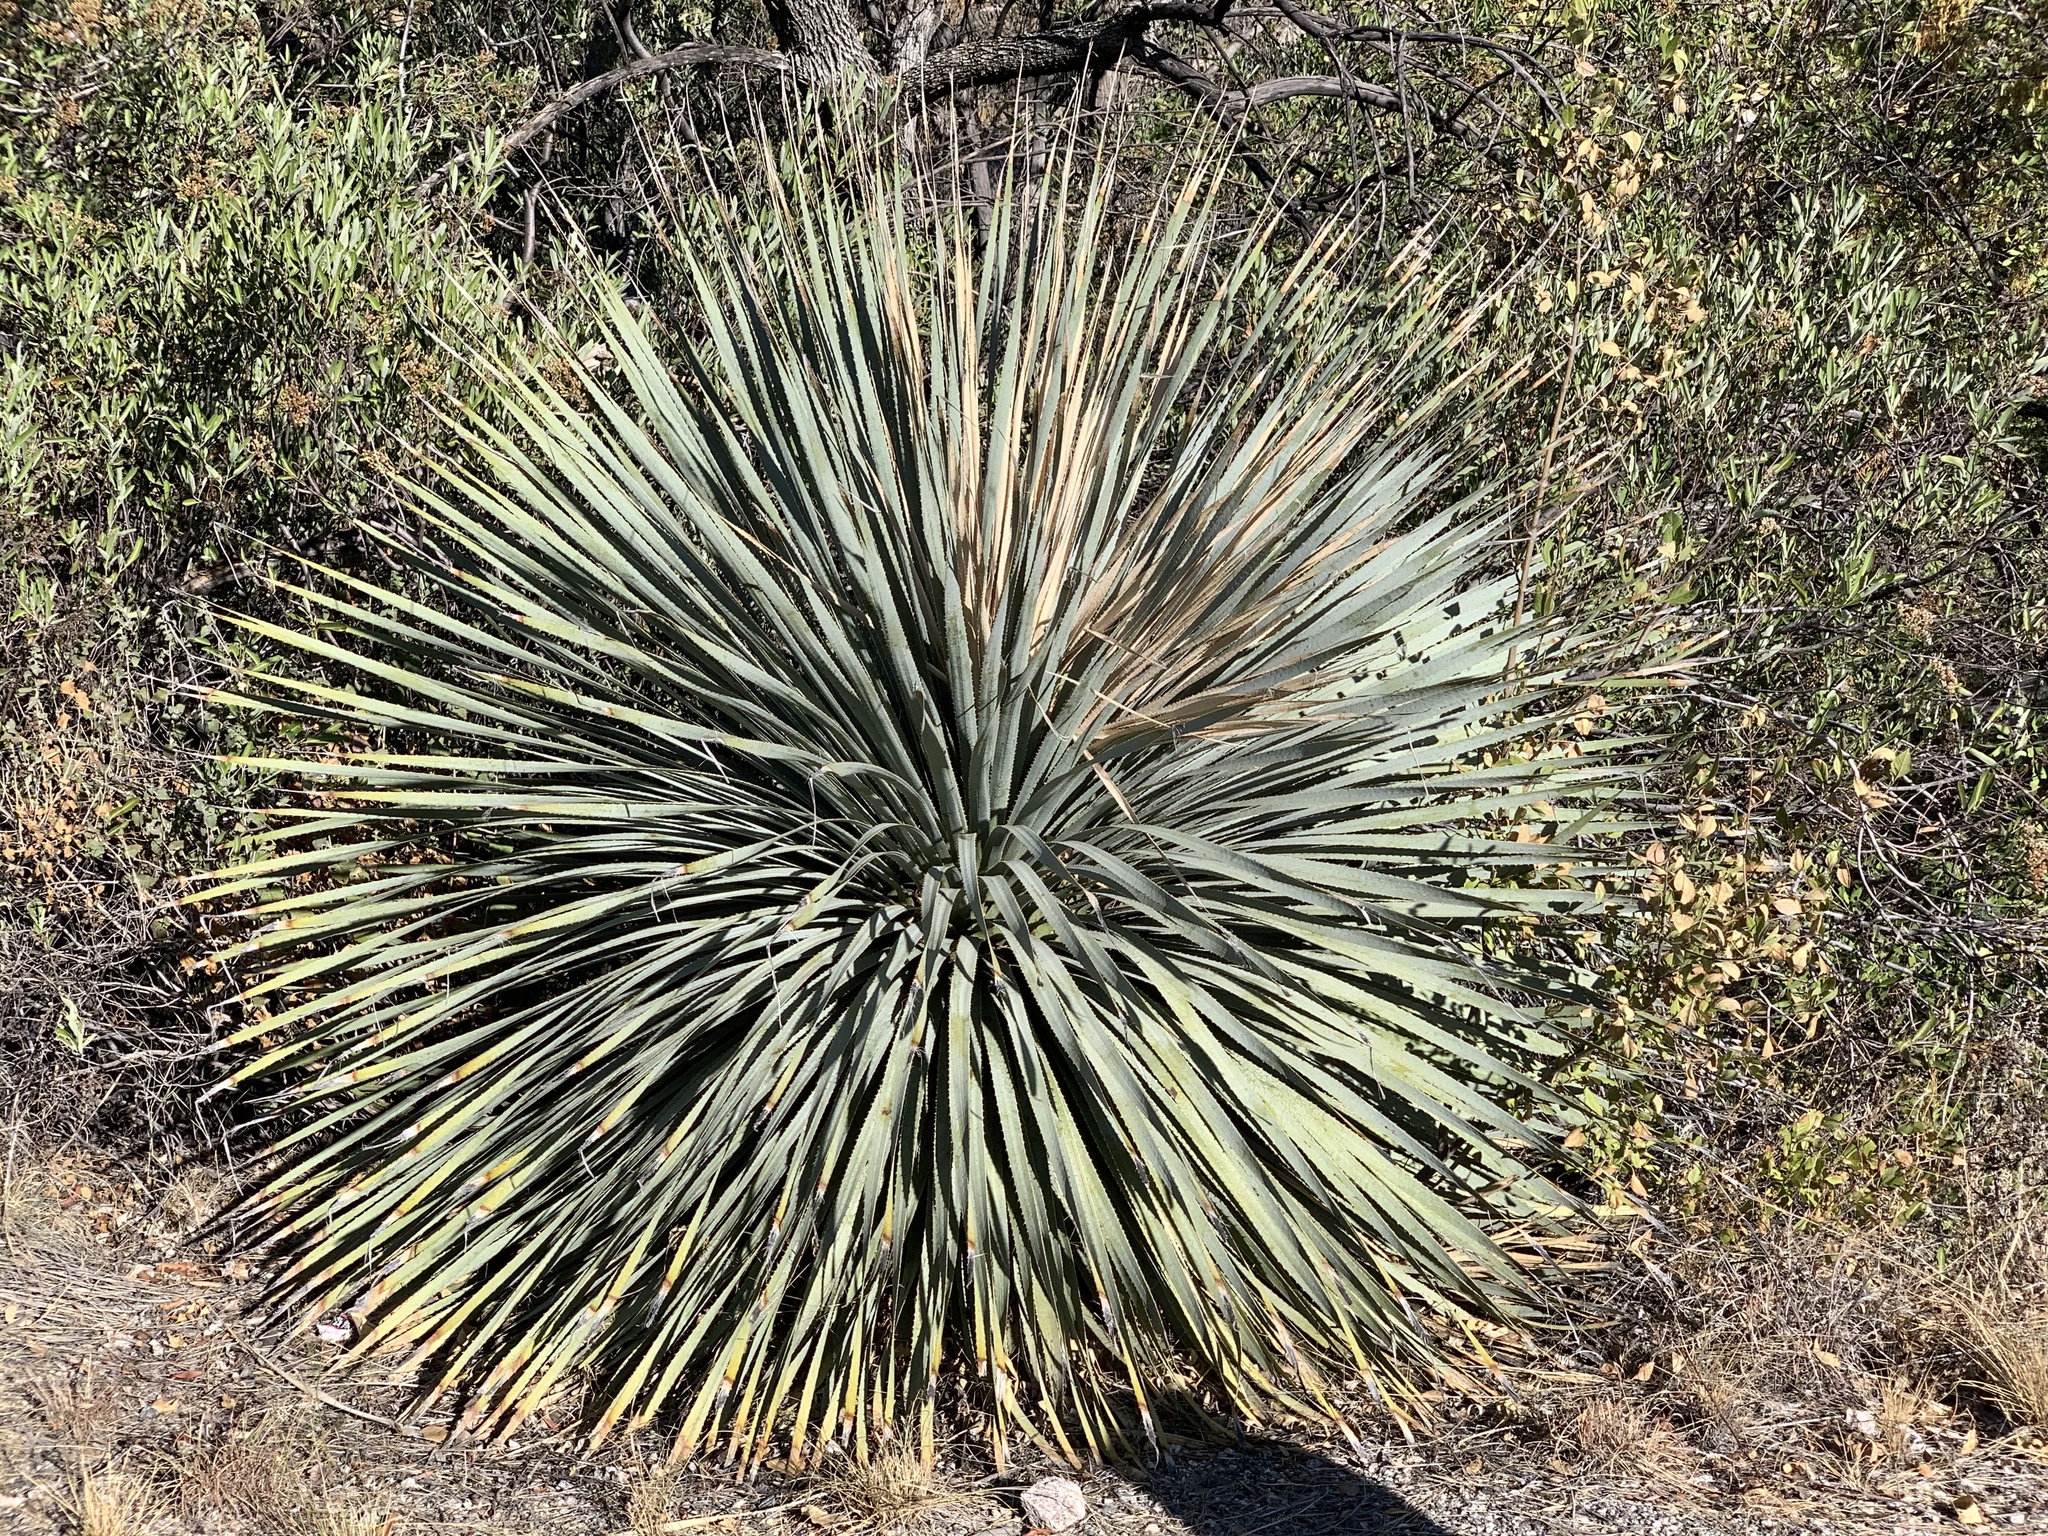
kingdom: Plantae
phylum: Tracheophyta
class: Liliopsida
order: Asparagales
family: Asparagaceae
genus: Dasylirion
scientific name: Dasylirion wheeleri
